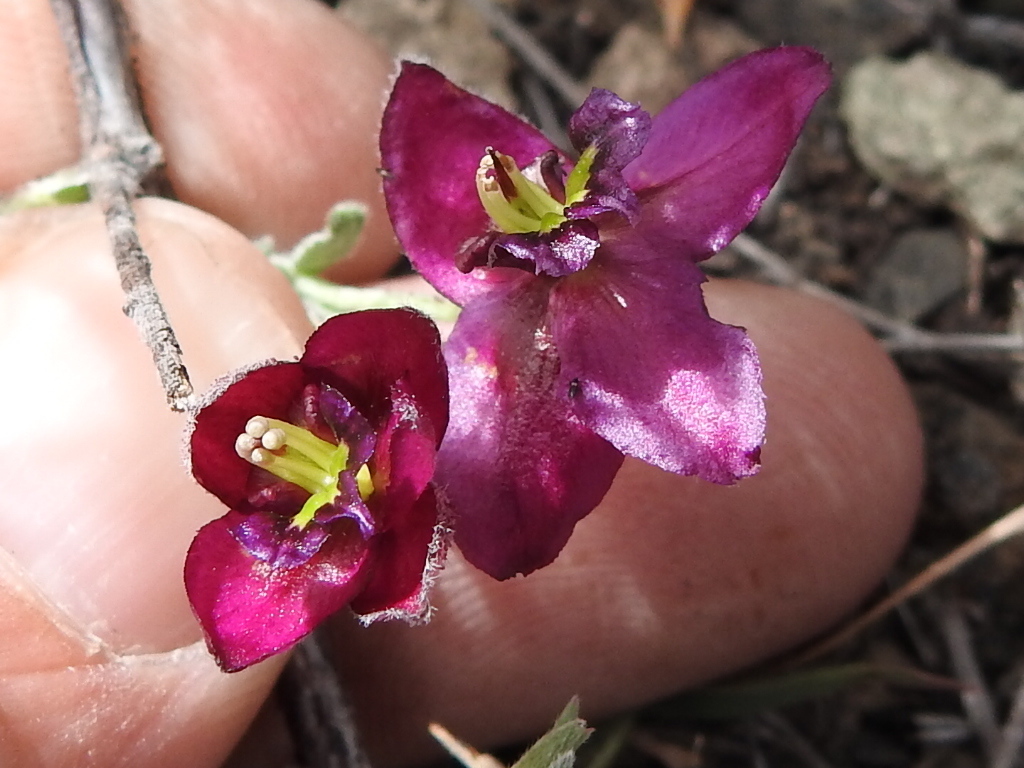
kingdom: Plantae
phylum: Tracheophyta
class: Magnoliopsida
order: Zygophyllales
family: Krameriaceae
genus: Krameria
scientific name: Krameria erecta
